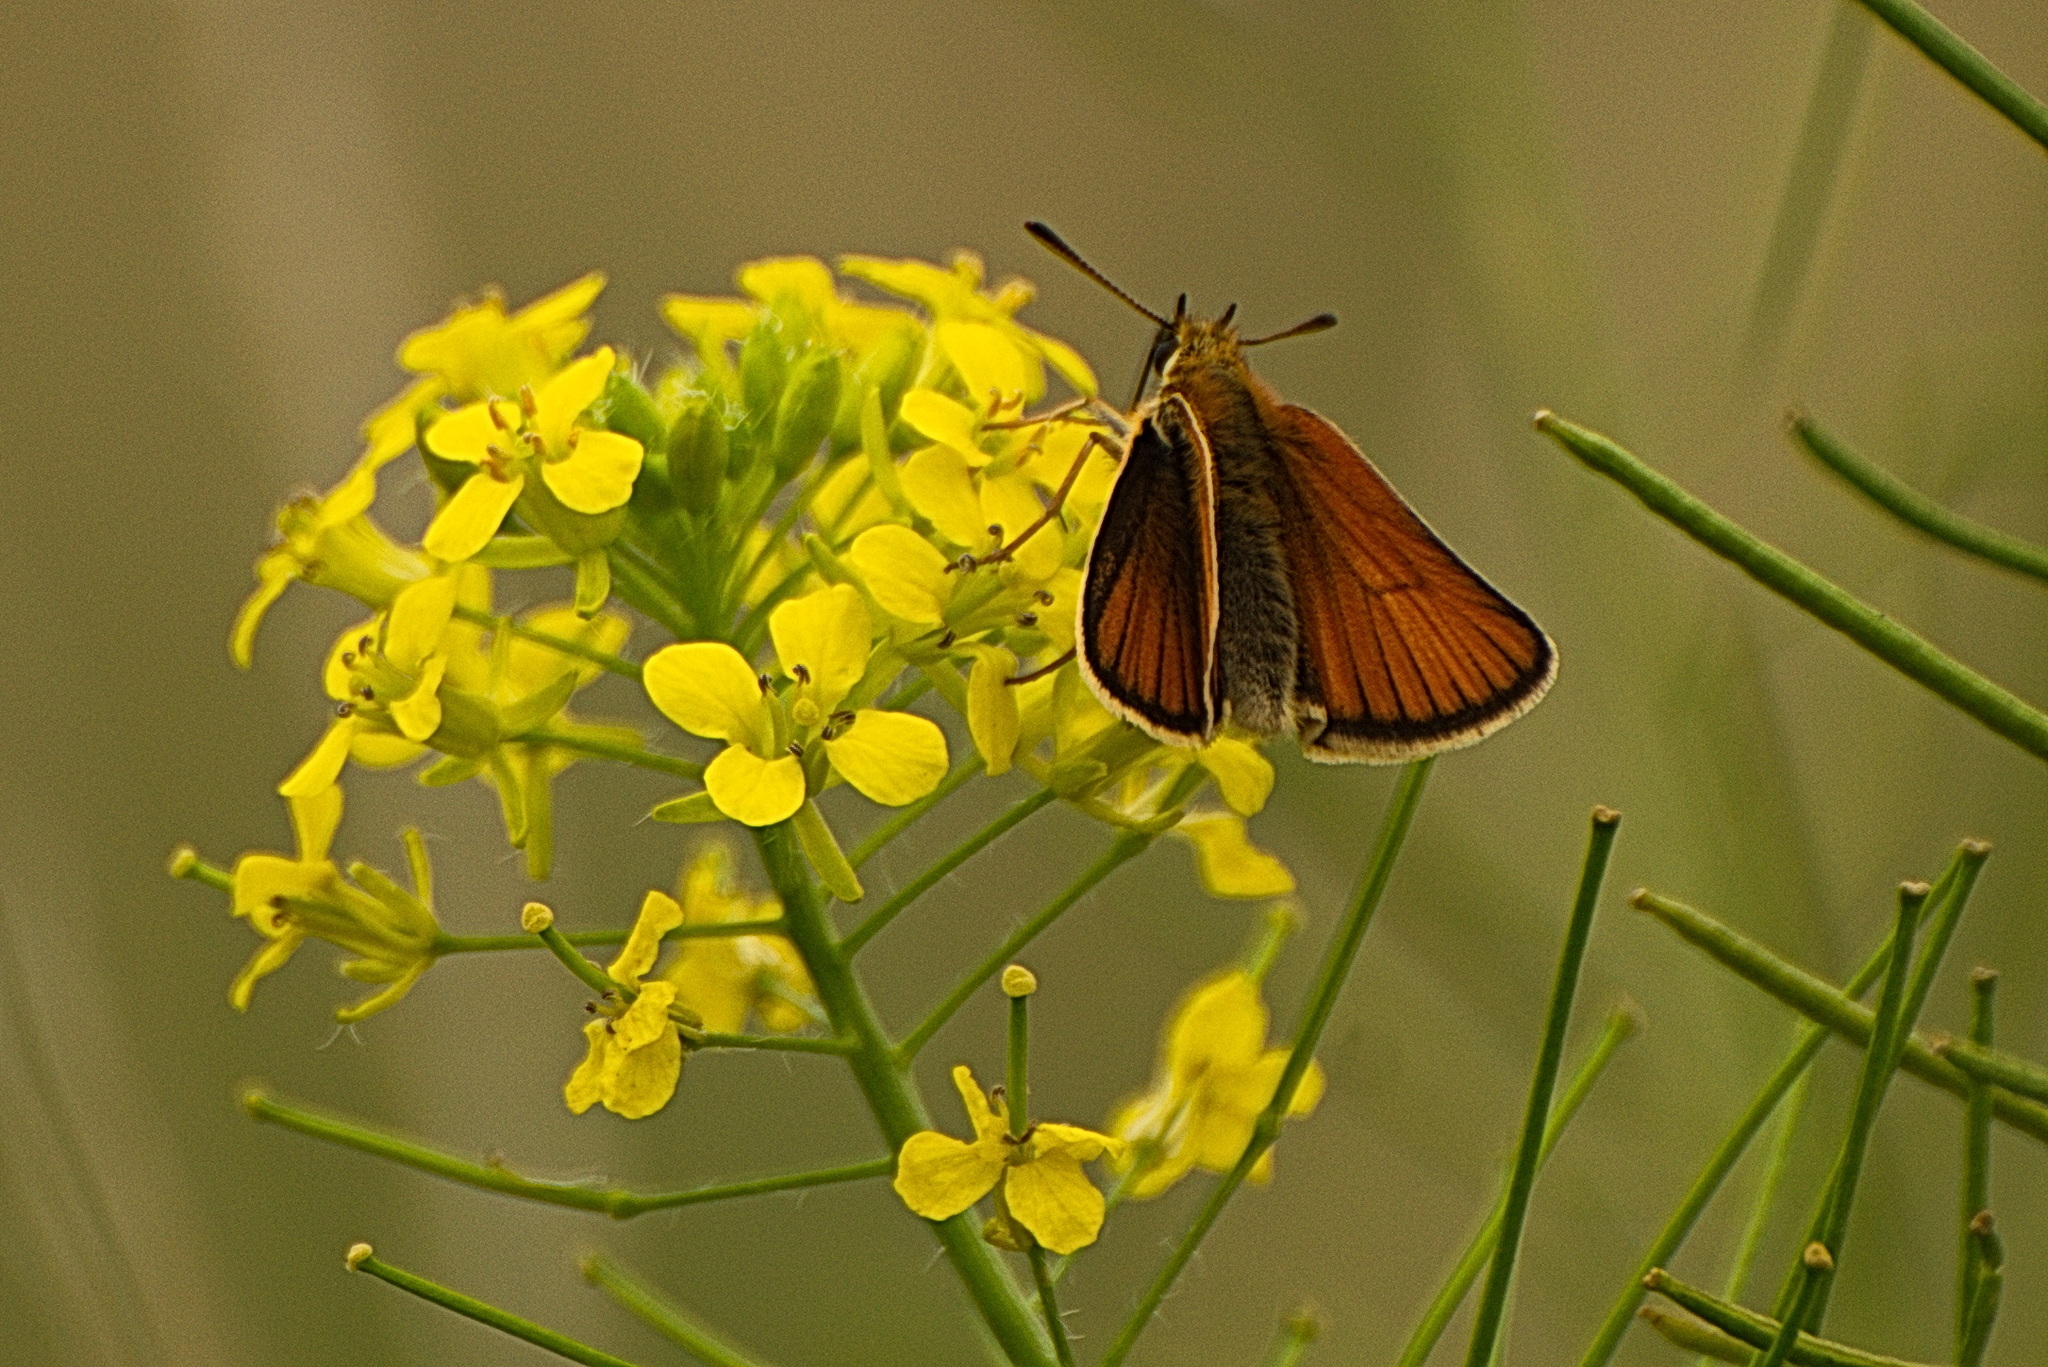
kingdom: Animalia
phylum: Arthropoda
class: Insecta
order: Lepidoptera
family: Hesperiidae
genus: Thymelicus
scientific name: Thymelicus lineola
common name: Essex skipper
